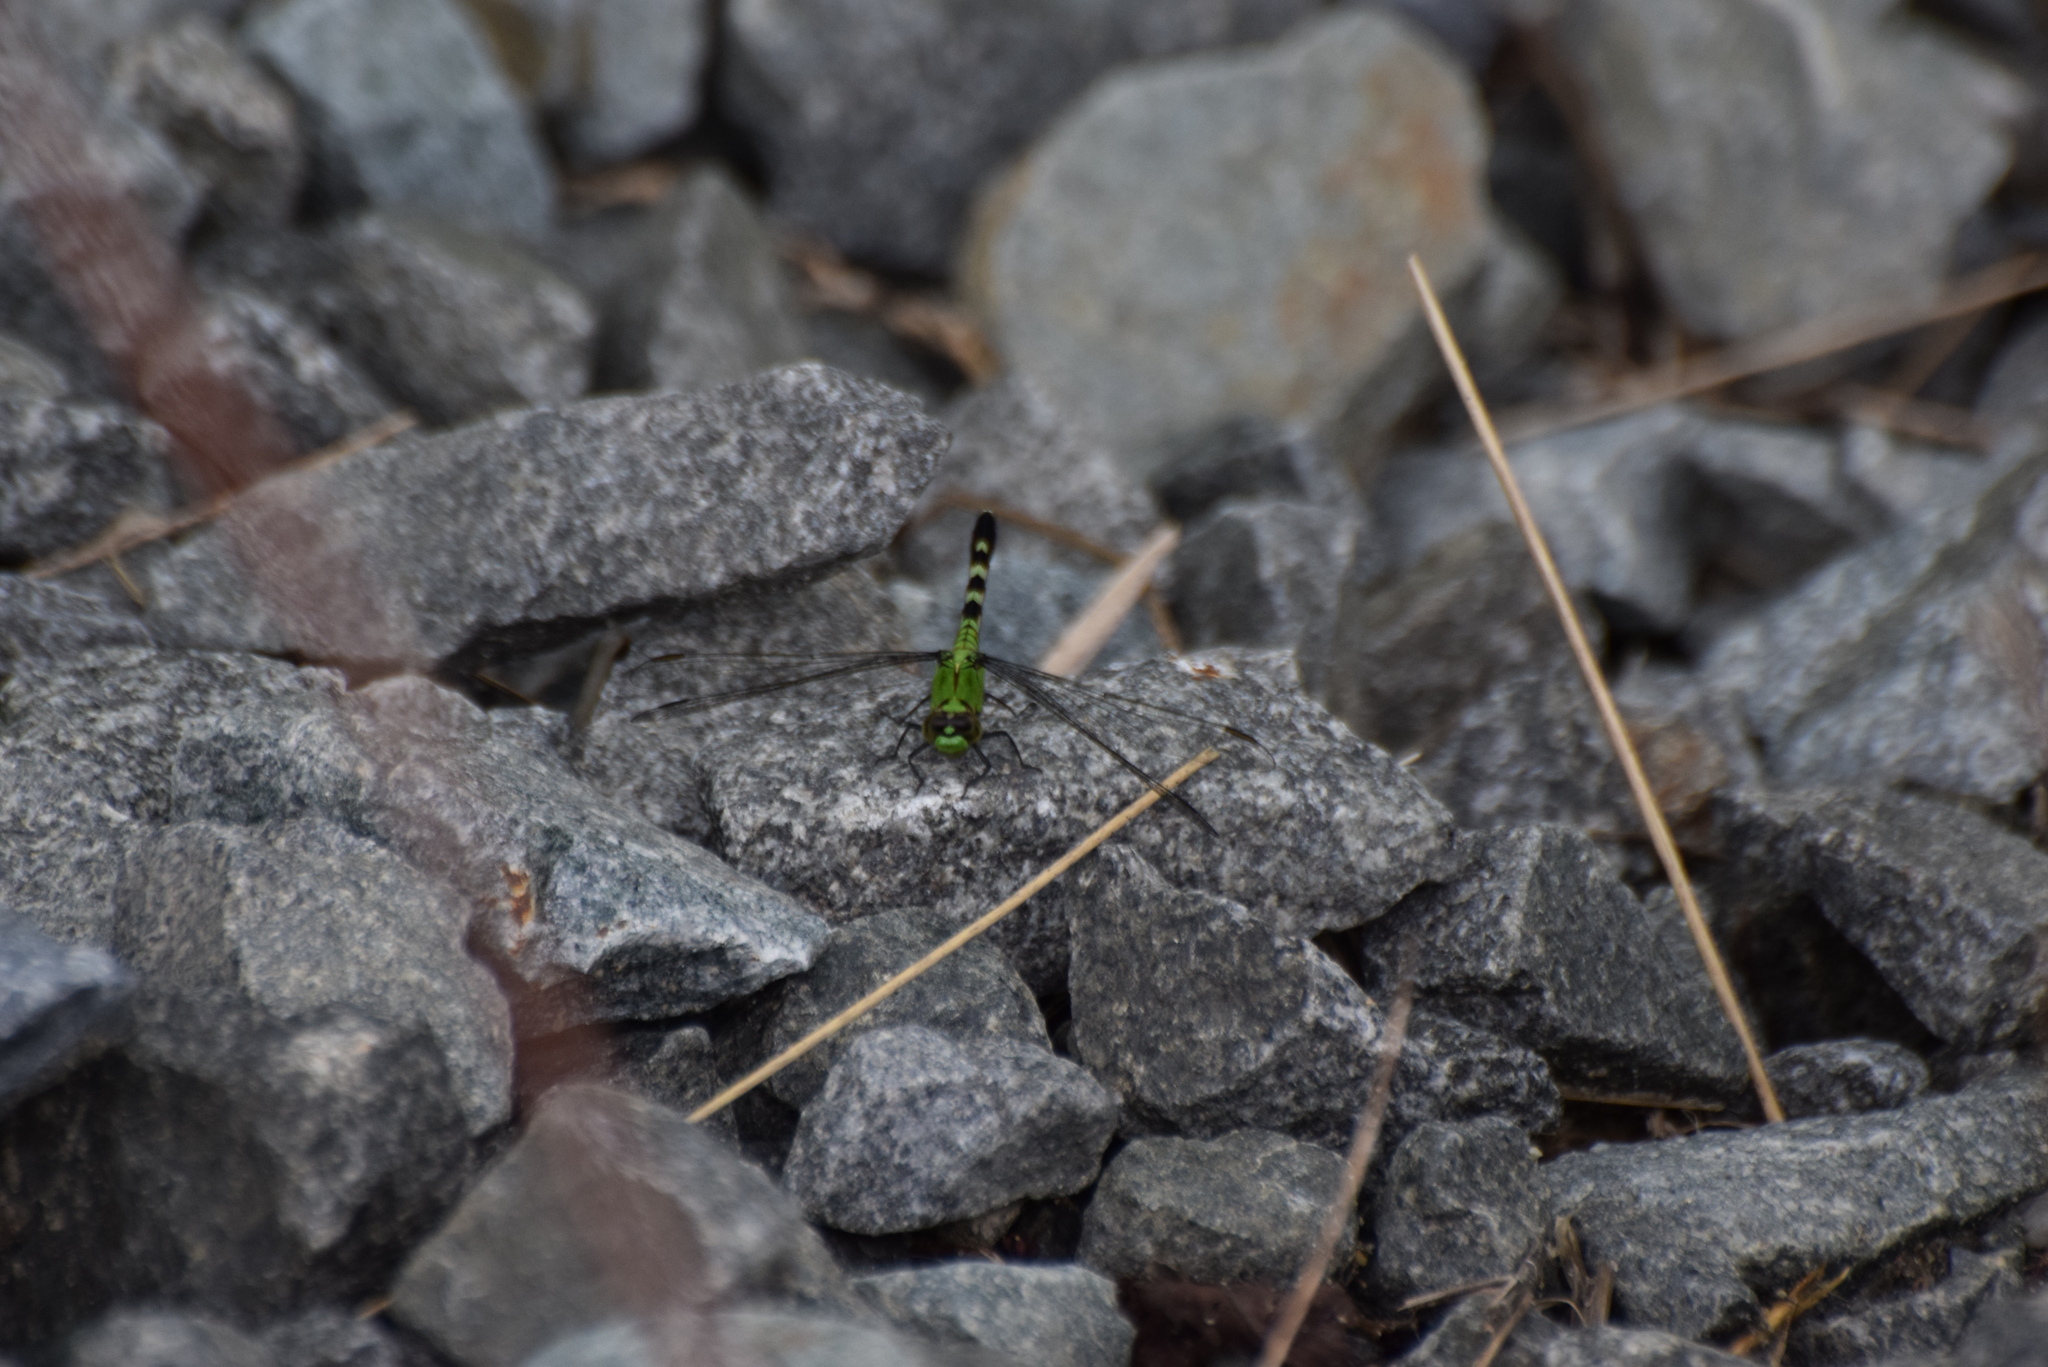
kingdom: Animalia
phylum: Arthropoda
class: Insecta
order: Odonata
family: Libellulidae
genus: Erythemis
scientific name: Erythemis simplicicollis
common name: Eastern pondhawk
